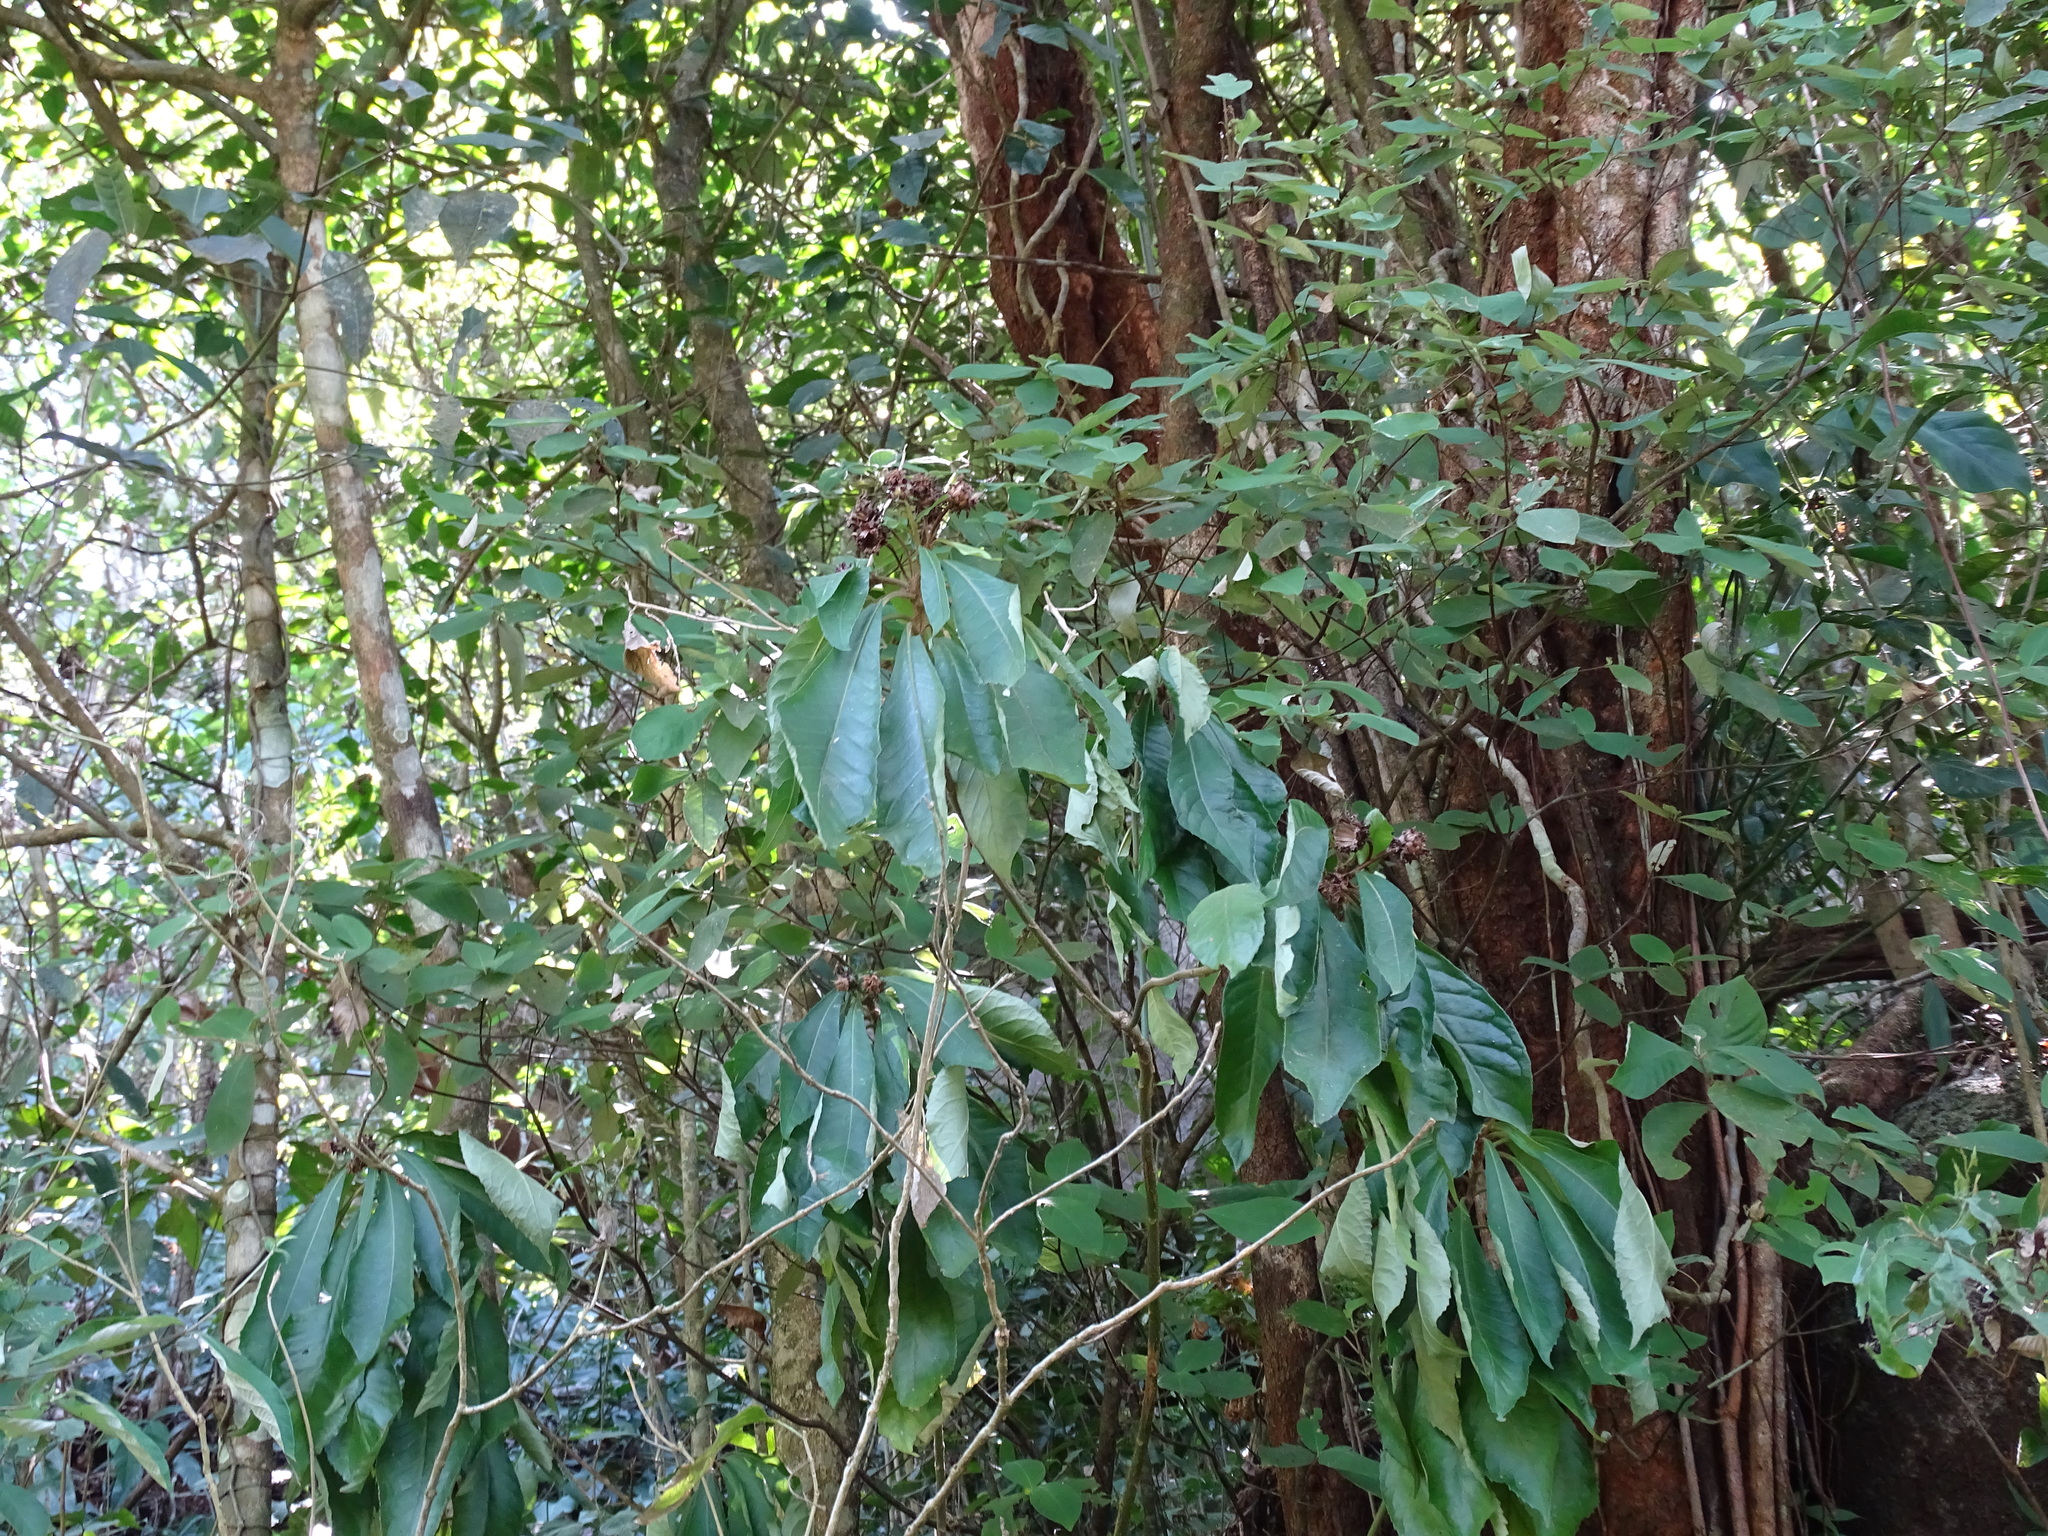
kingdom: Plantae
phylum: Tracheophyta
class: Magnoliopsida
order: Asterales
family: Asteraceae
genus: Lepidonia
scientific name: Lepidonia salvinae
